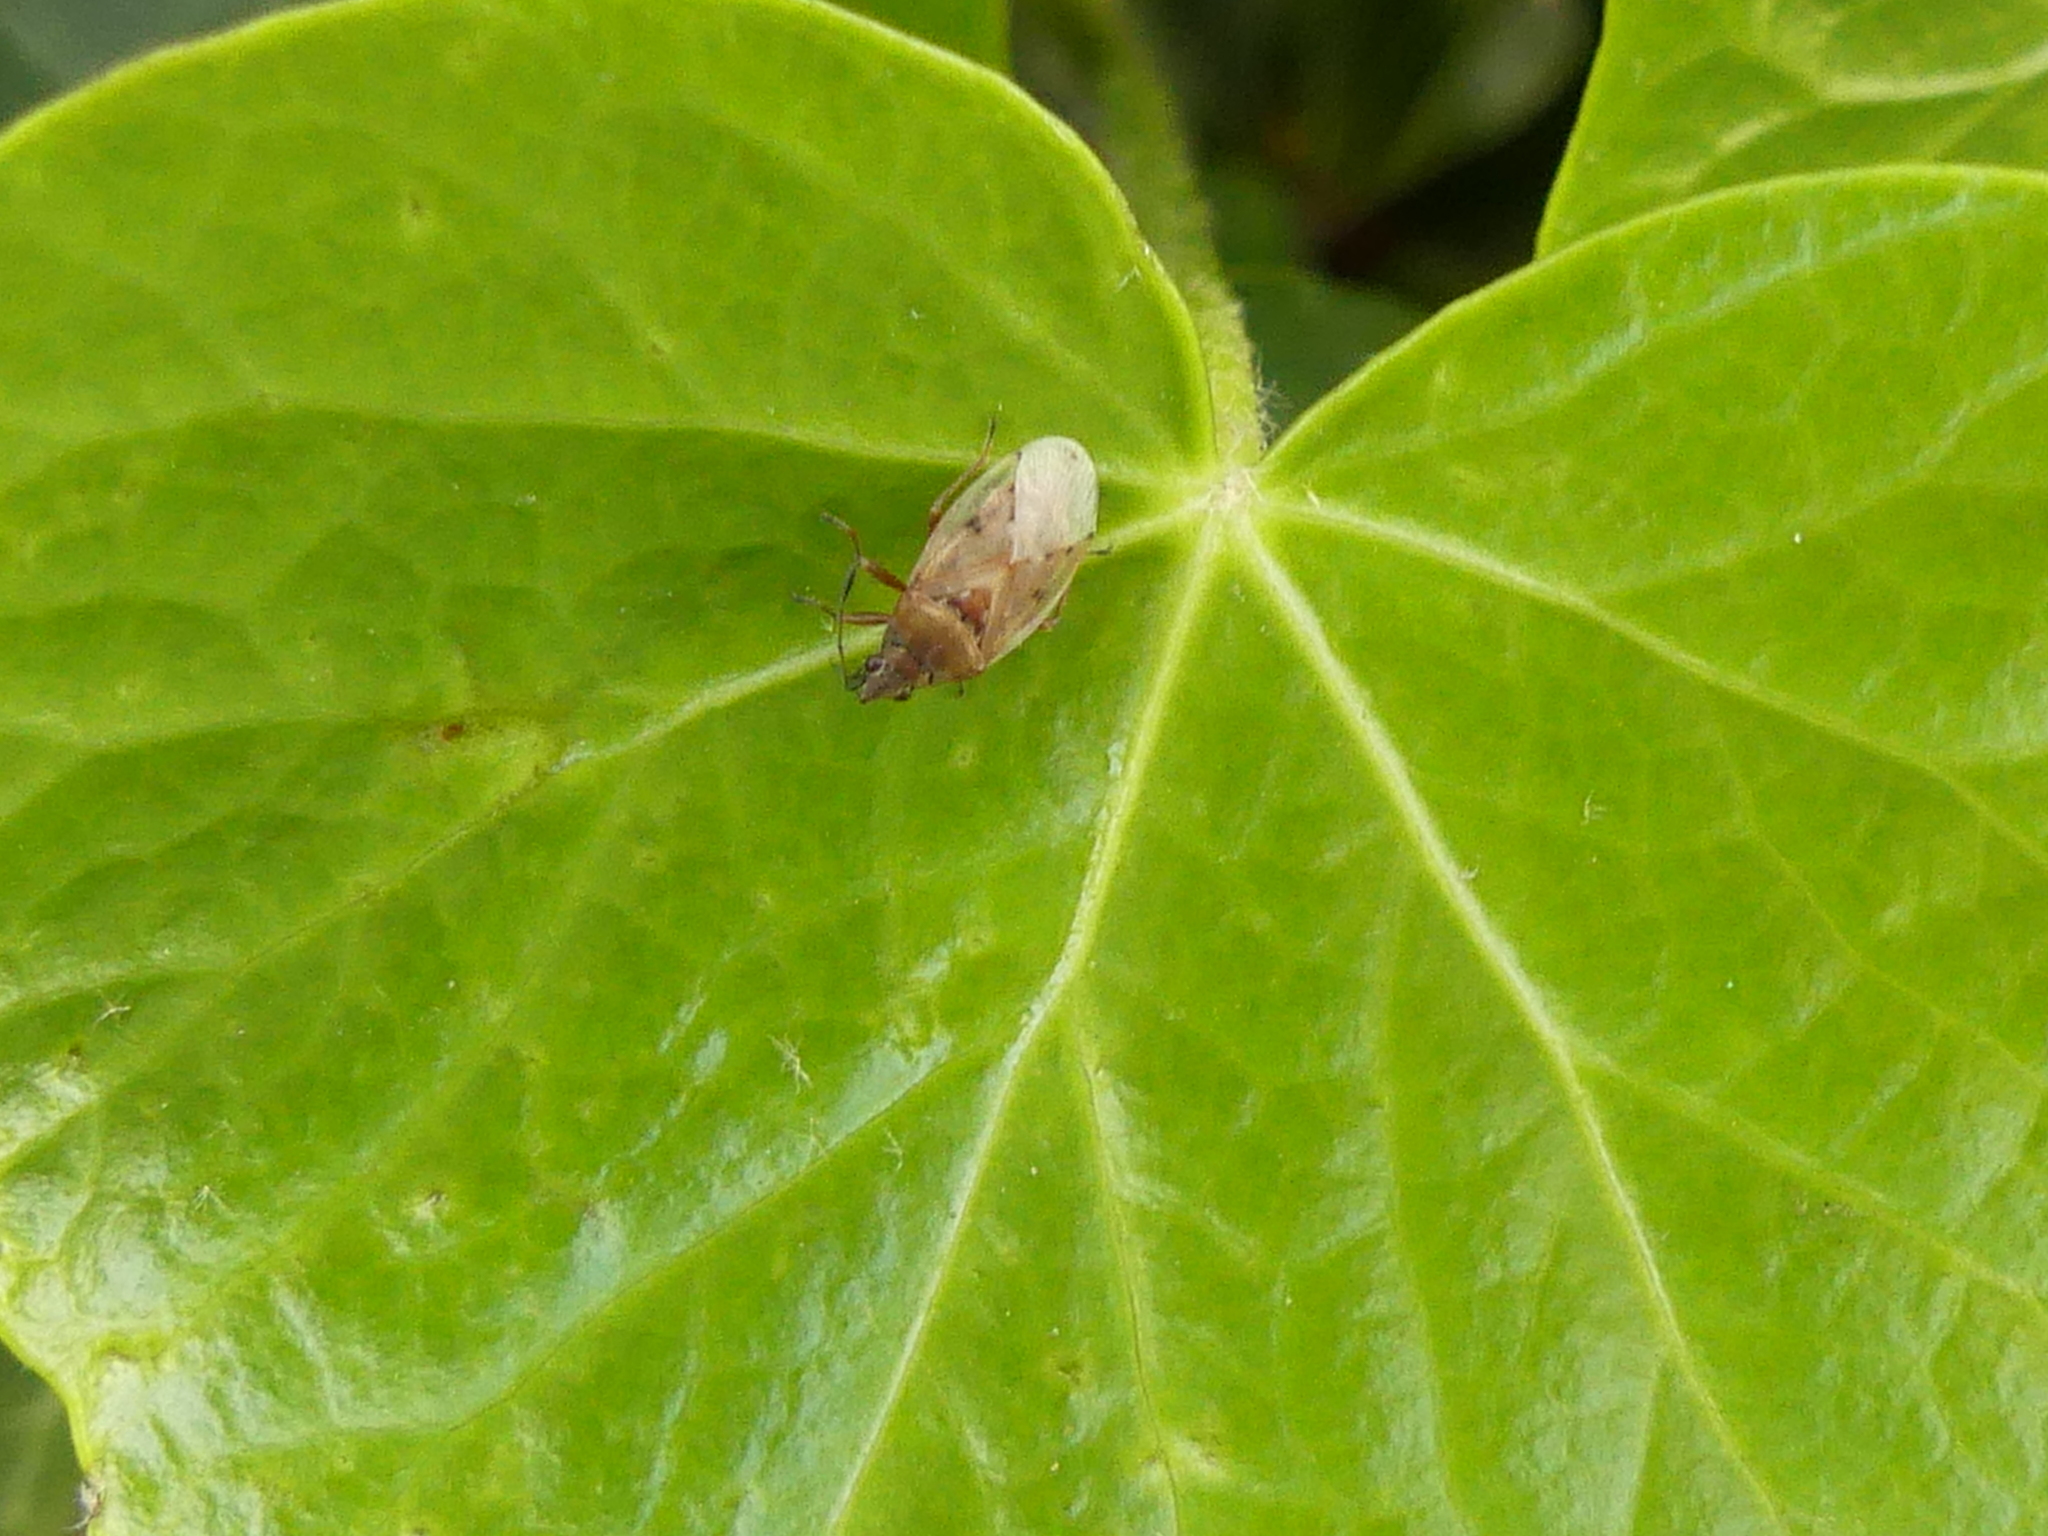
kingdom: Animalia
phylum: Arthropoda
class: Insecta
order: Hemiptera
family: Lygaeidae
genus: Kleidocerys
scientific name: Kleidocerys resedae
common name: Birch catkin bug
